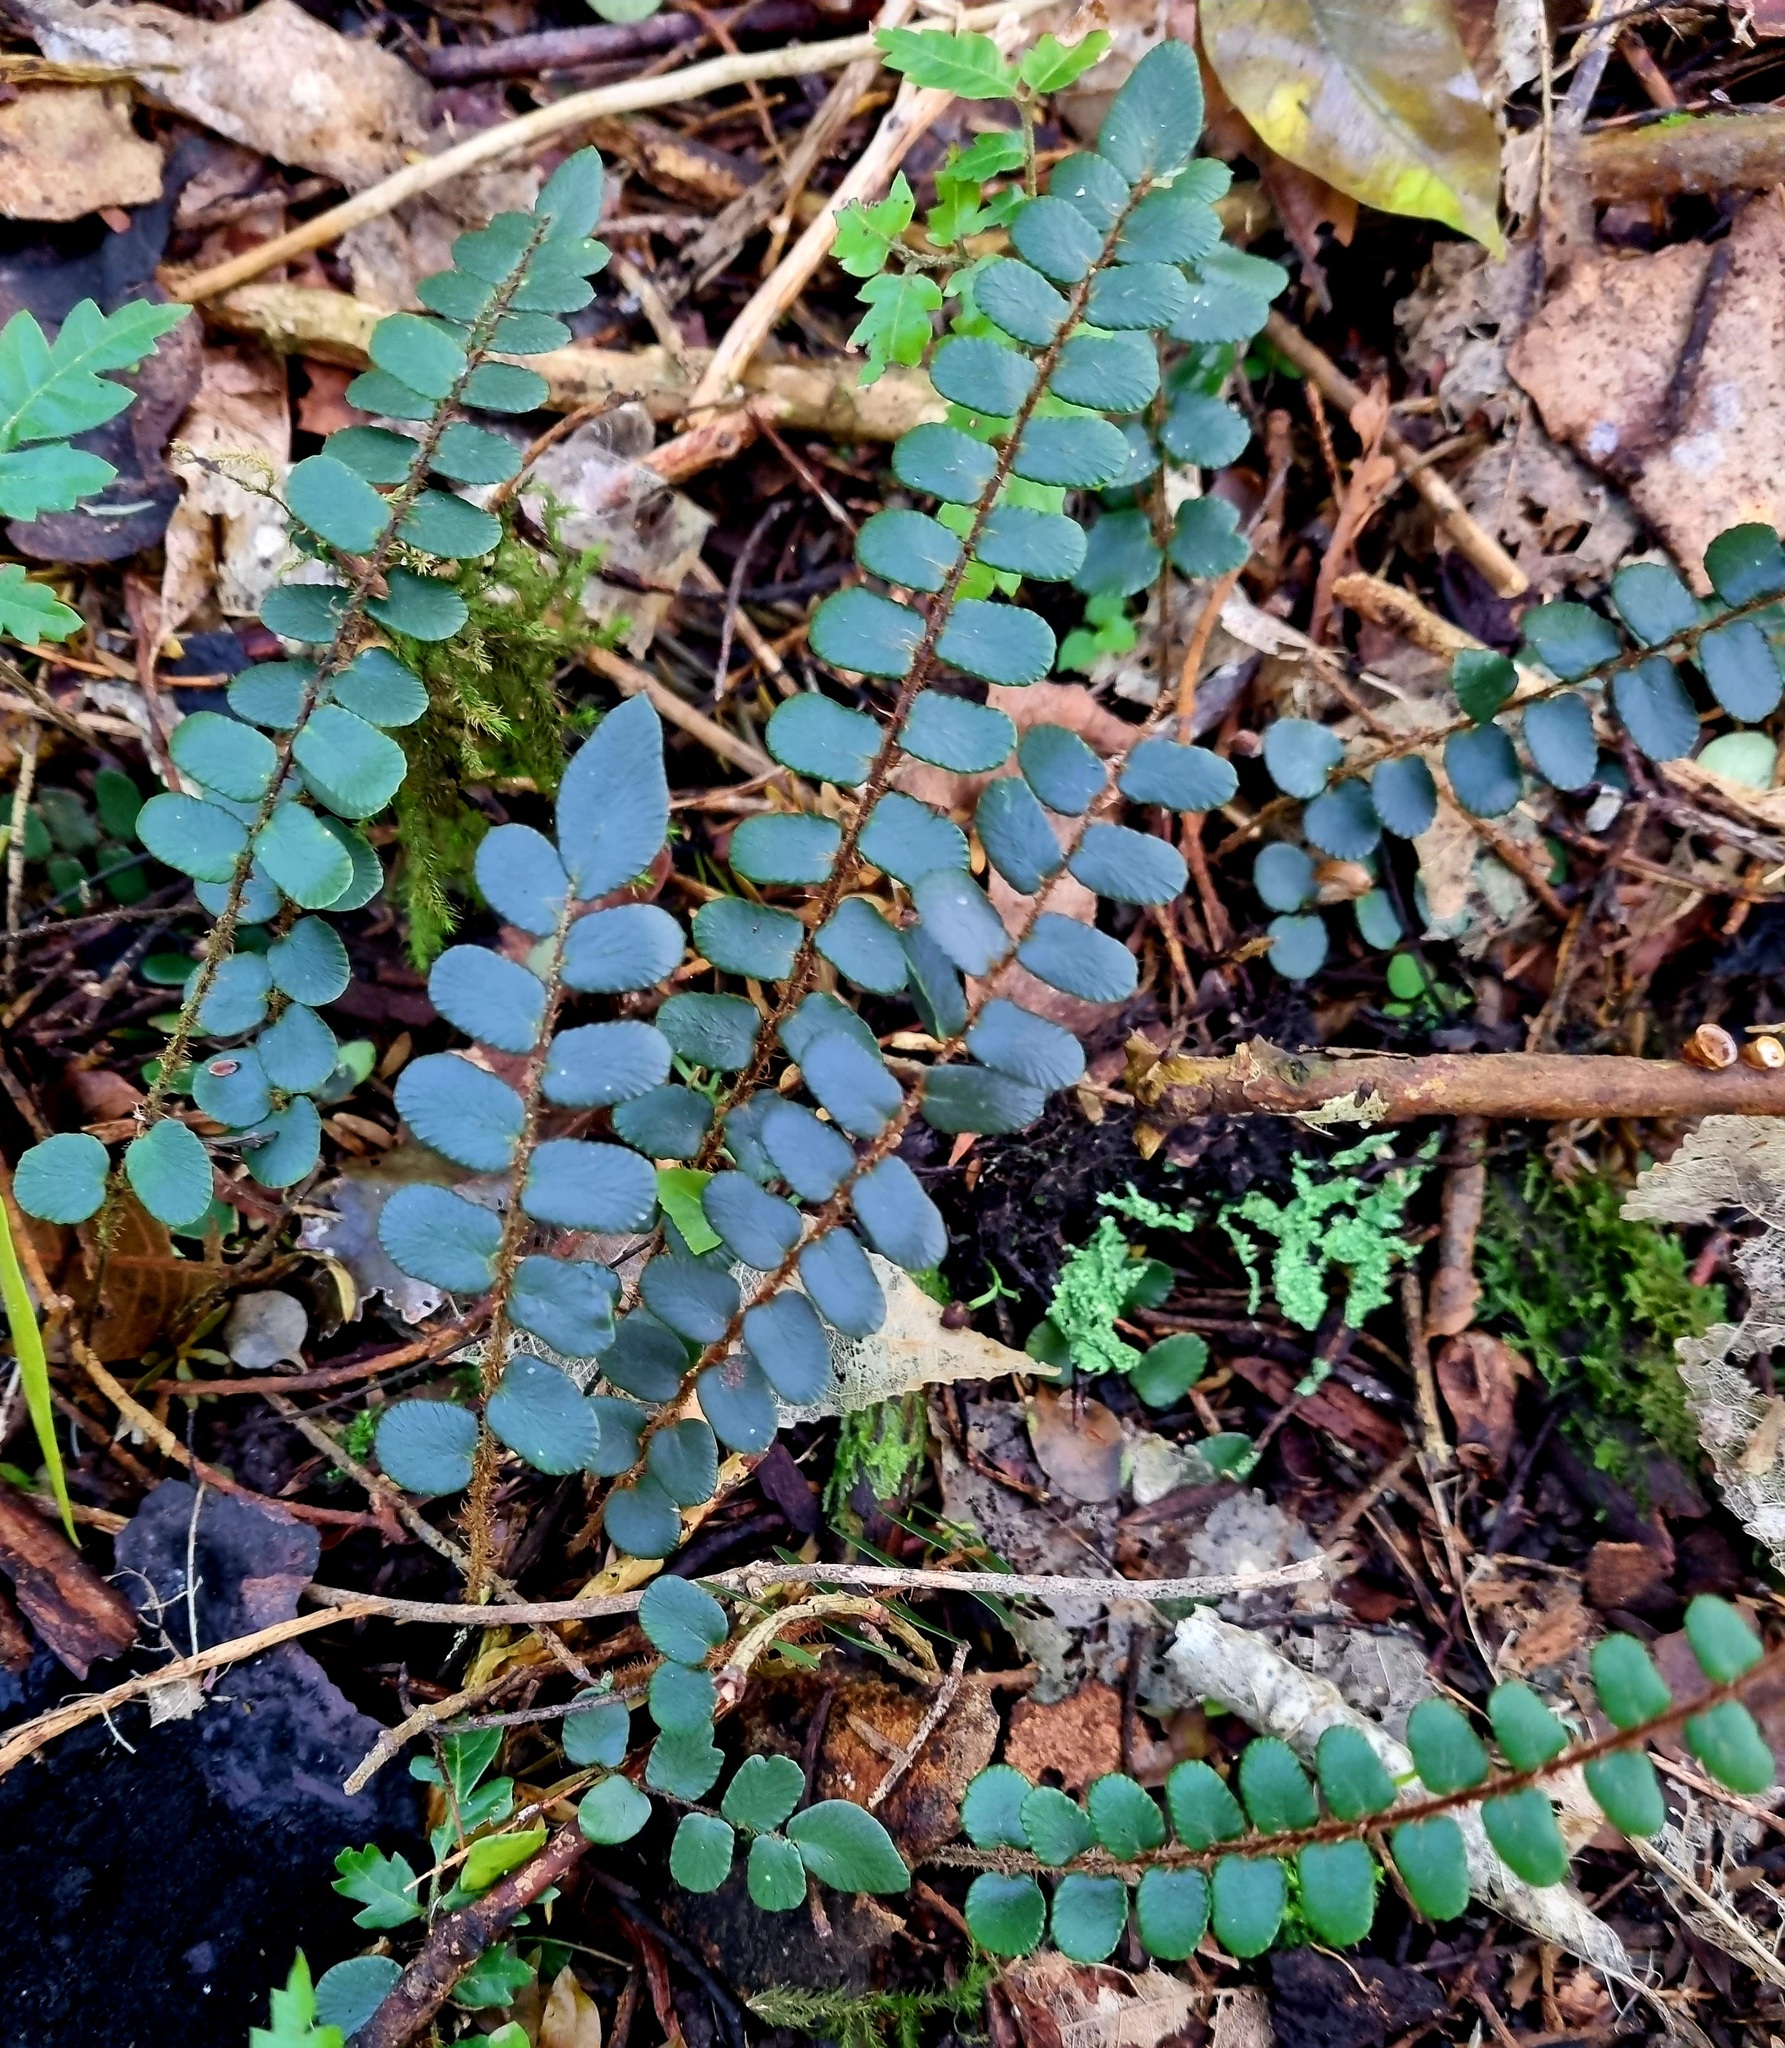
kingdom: Plantae
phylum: Tracheophyta
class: Polypodiopsida
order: Polypodiales
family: Pteridaceae
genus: Pellaea
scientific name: Pellaea rotundifolia
